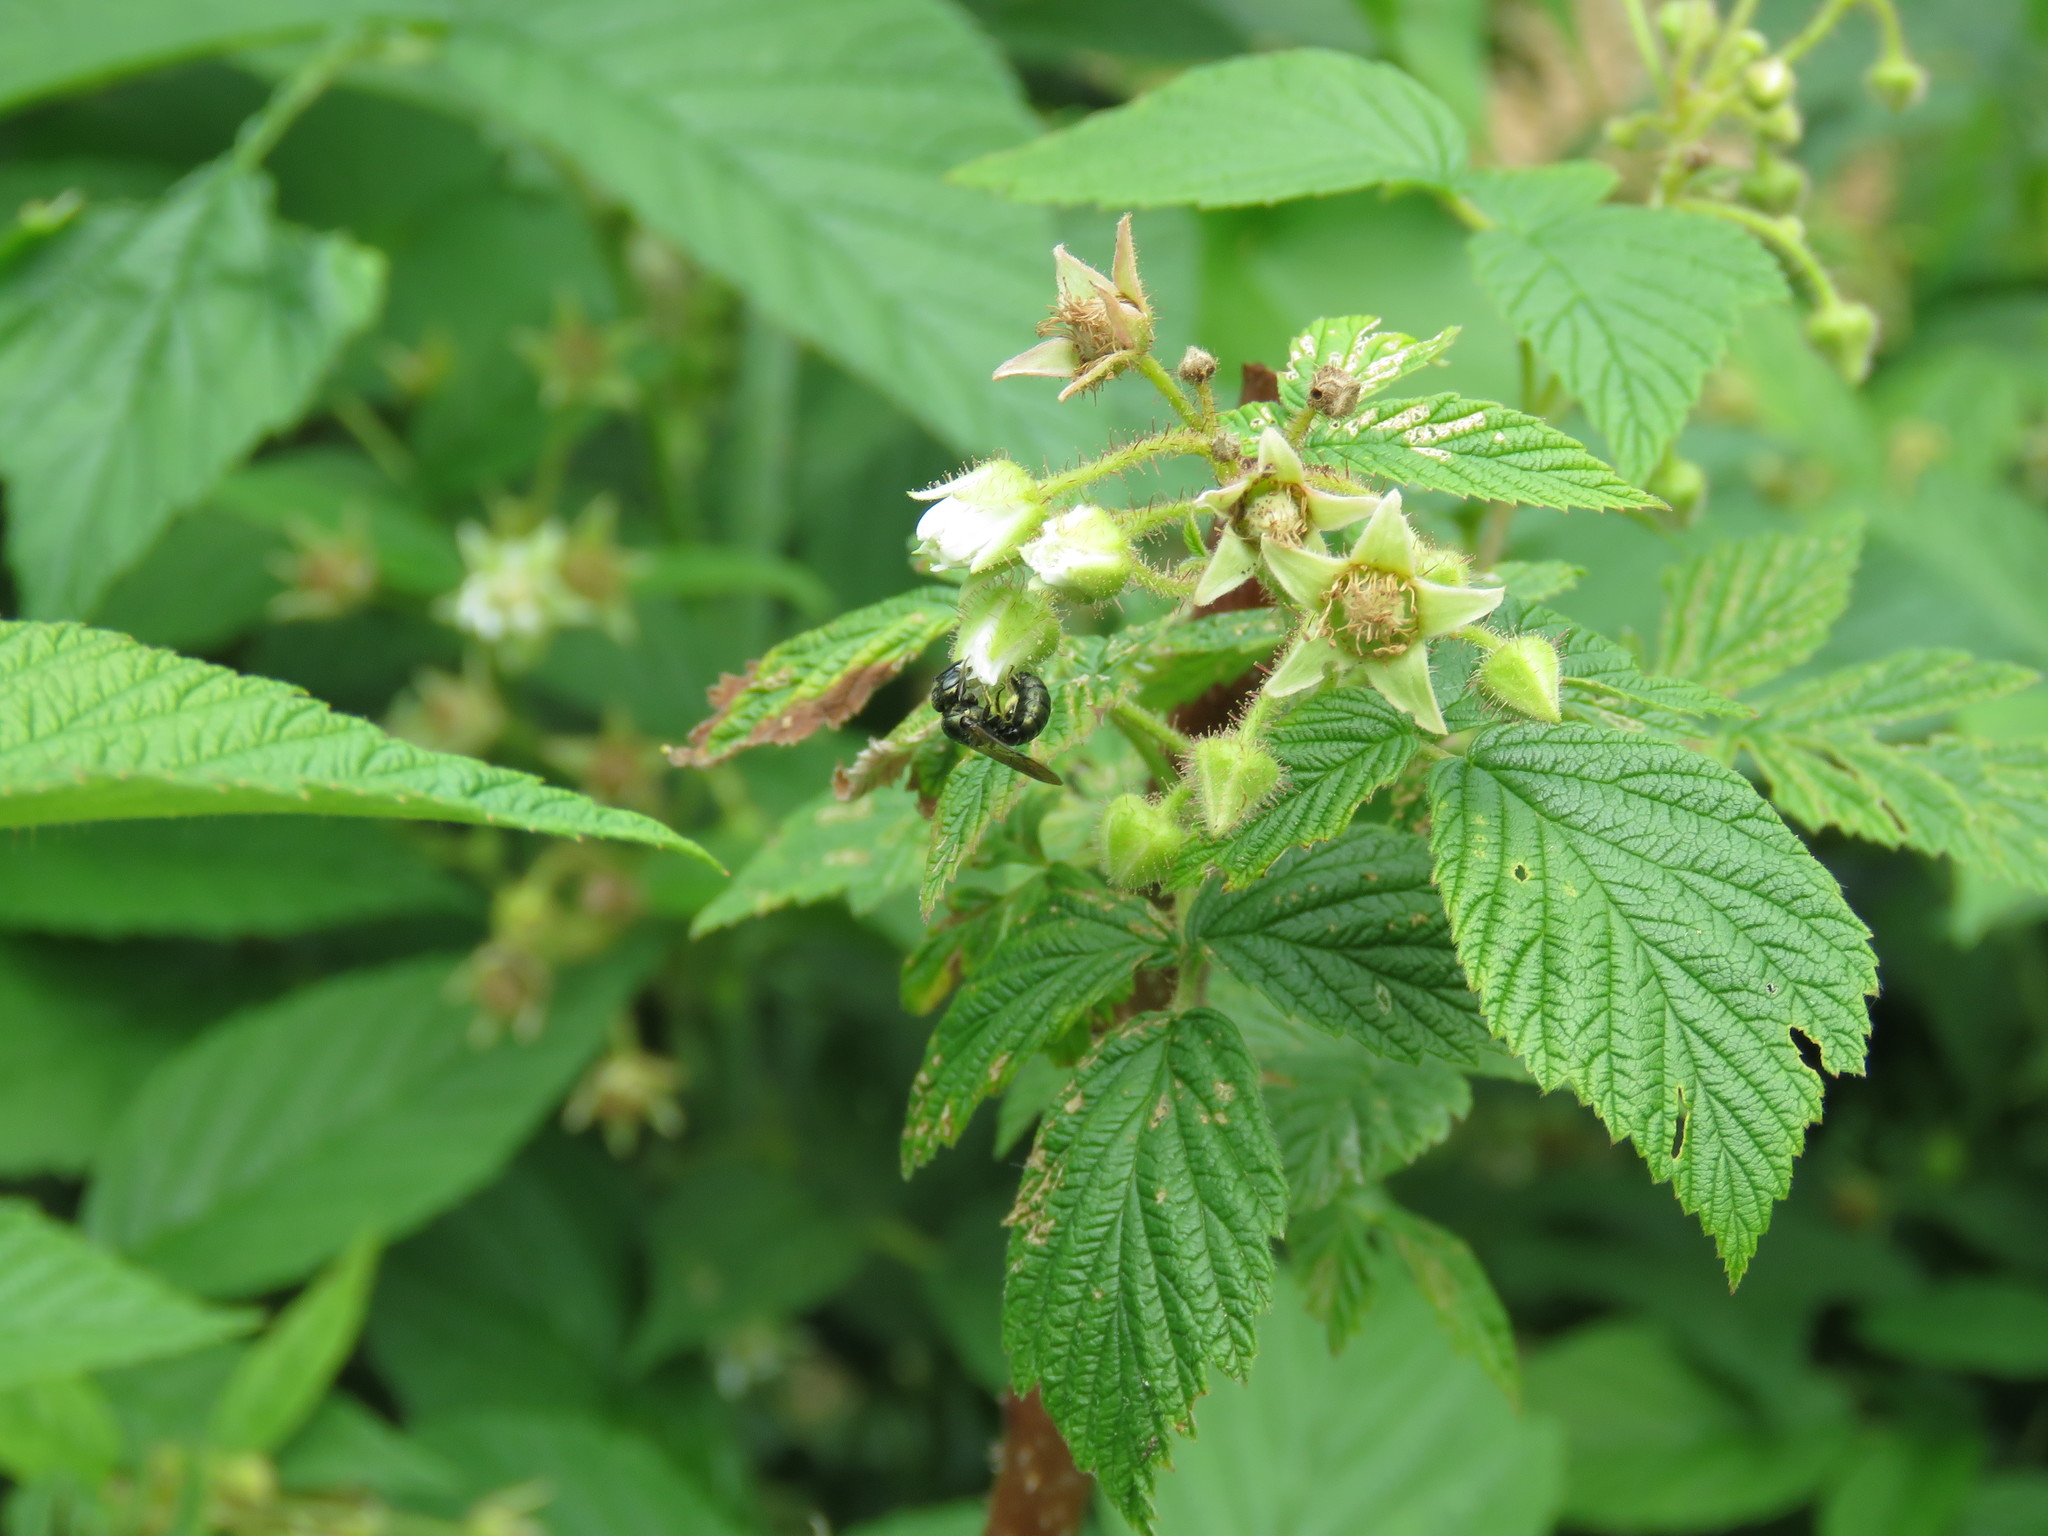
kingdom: Animalia
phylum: Arthropoda
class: Insecta
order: Hymenoptera
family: Apidae
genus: Zadontomerus
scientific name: Zadontomerus
